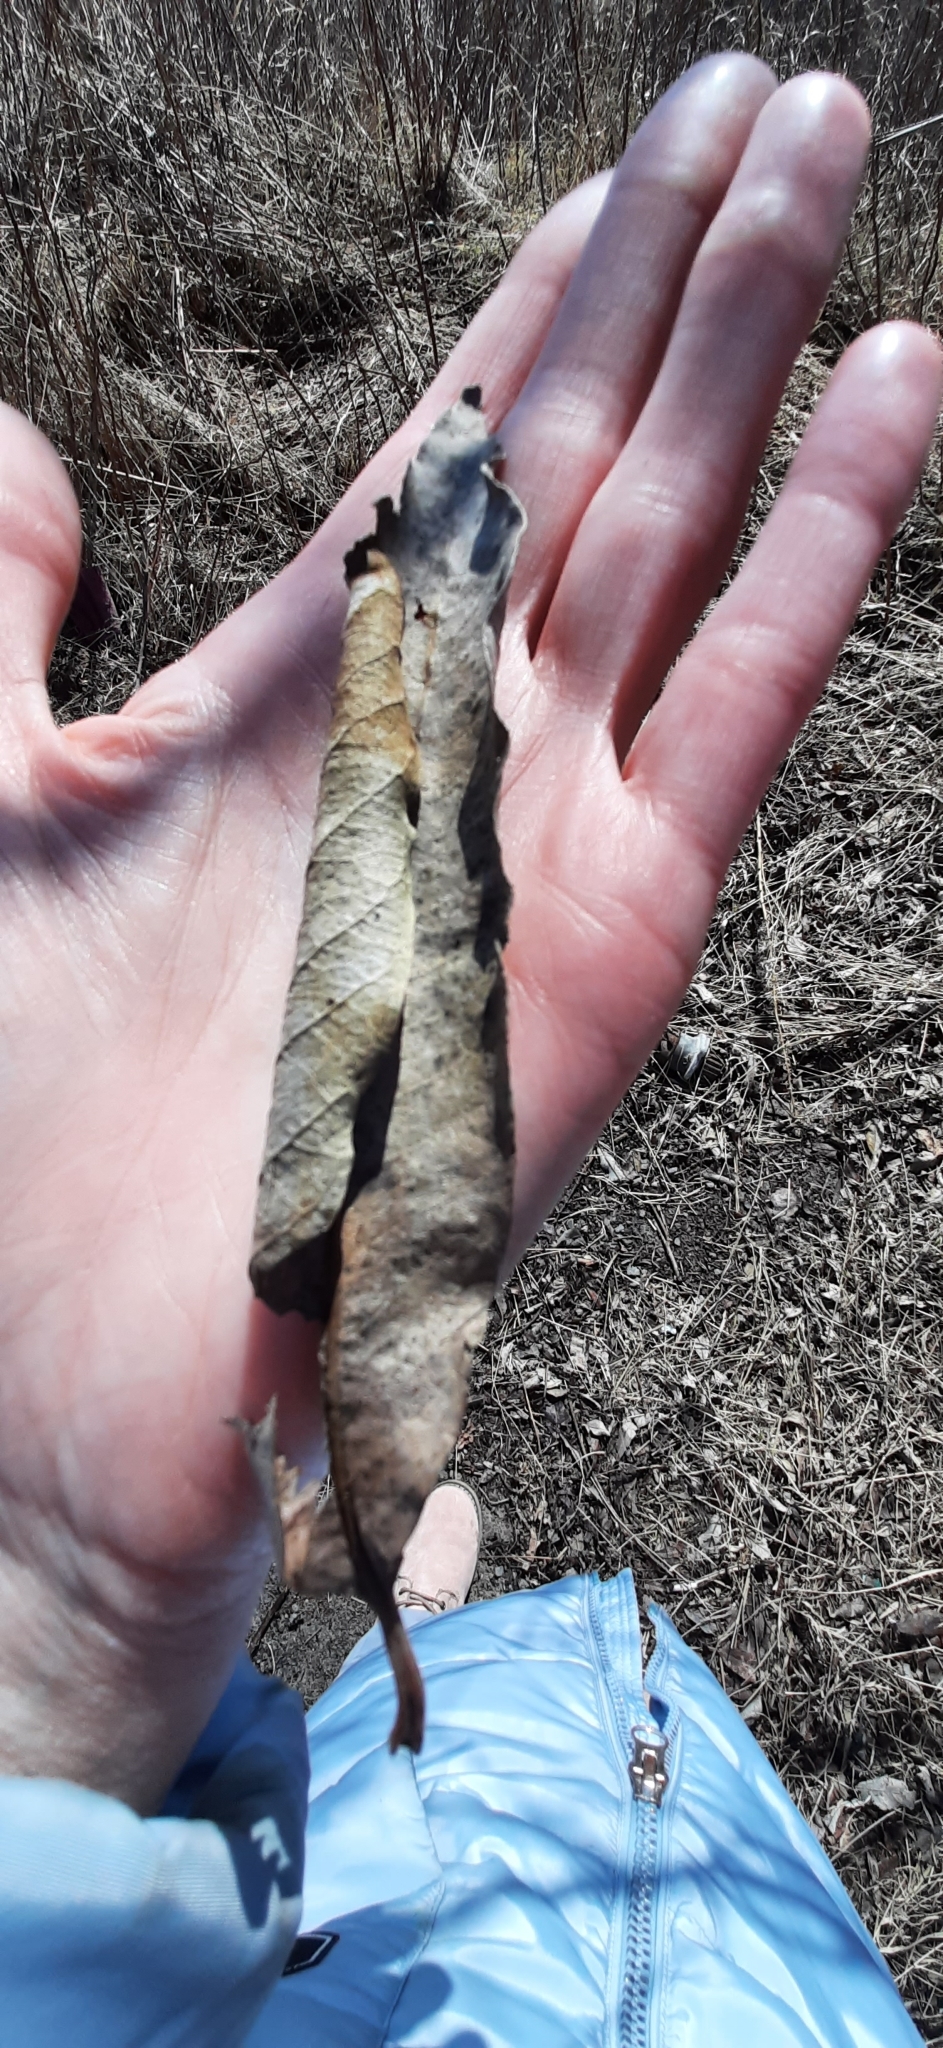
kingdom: Plantae
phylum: Tracheophyta
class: Magnoliopsida
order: Malpighiales
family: Salicaceae
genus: Salix
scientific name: Salix caprea
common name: Goat willow
